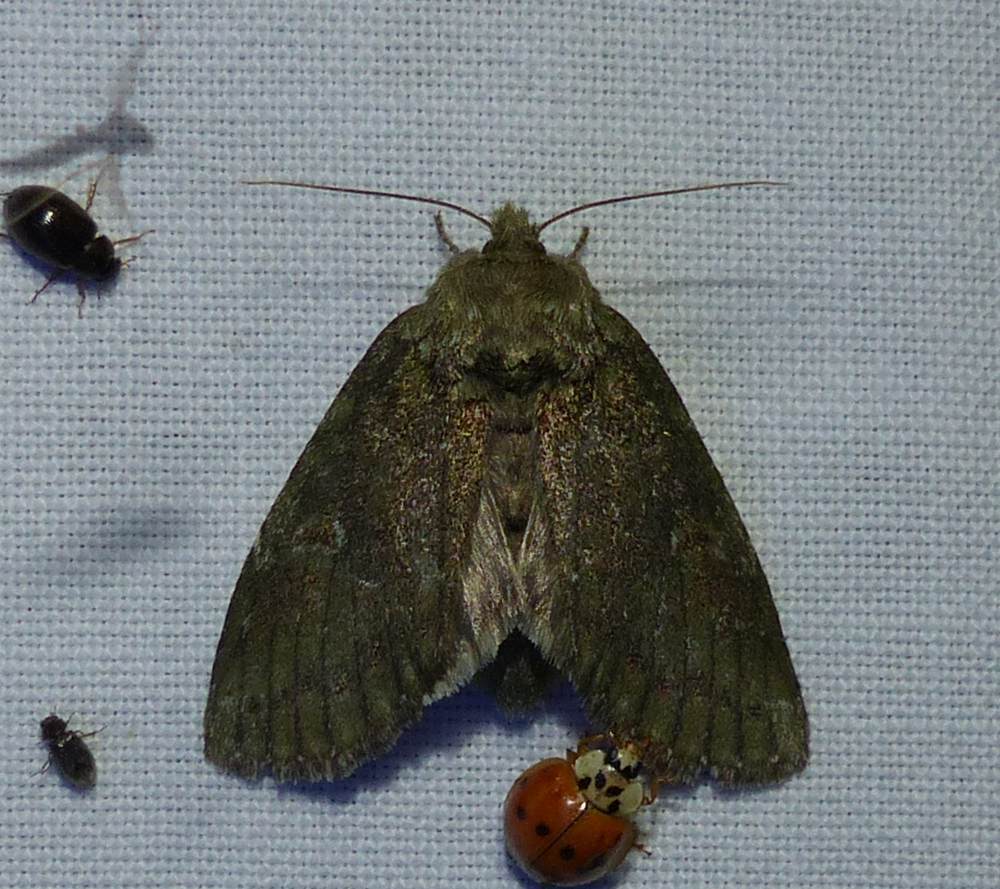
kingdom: Animalia
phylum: Arthropoda
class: Insecta
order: Lepidoptera
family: Notodontidae
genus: Disphragis
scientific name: Disphragis Cecrita guttivitta
